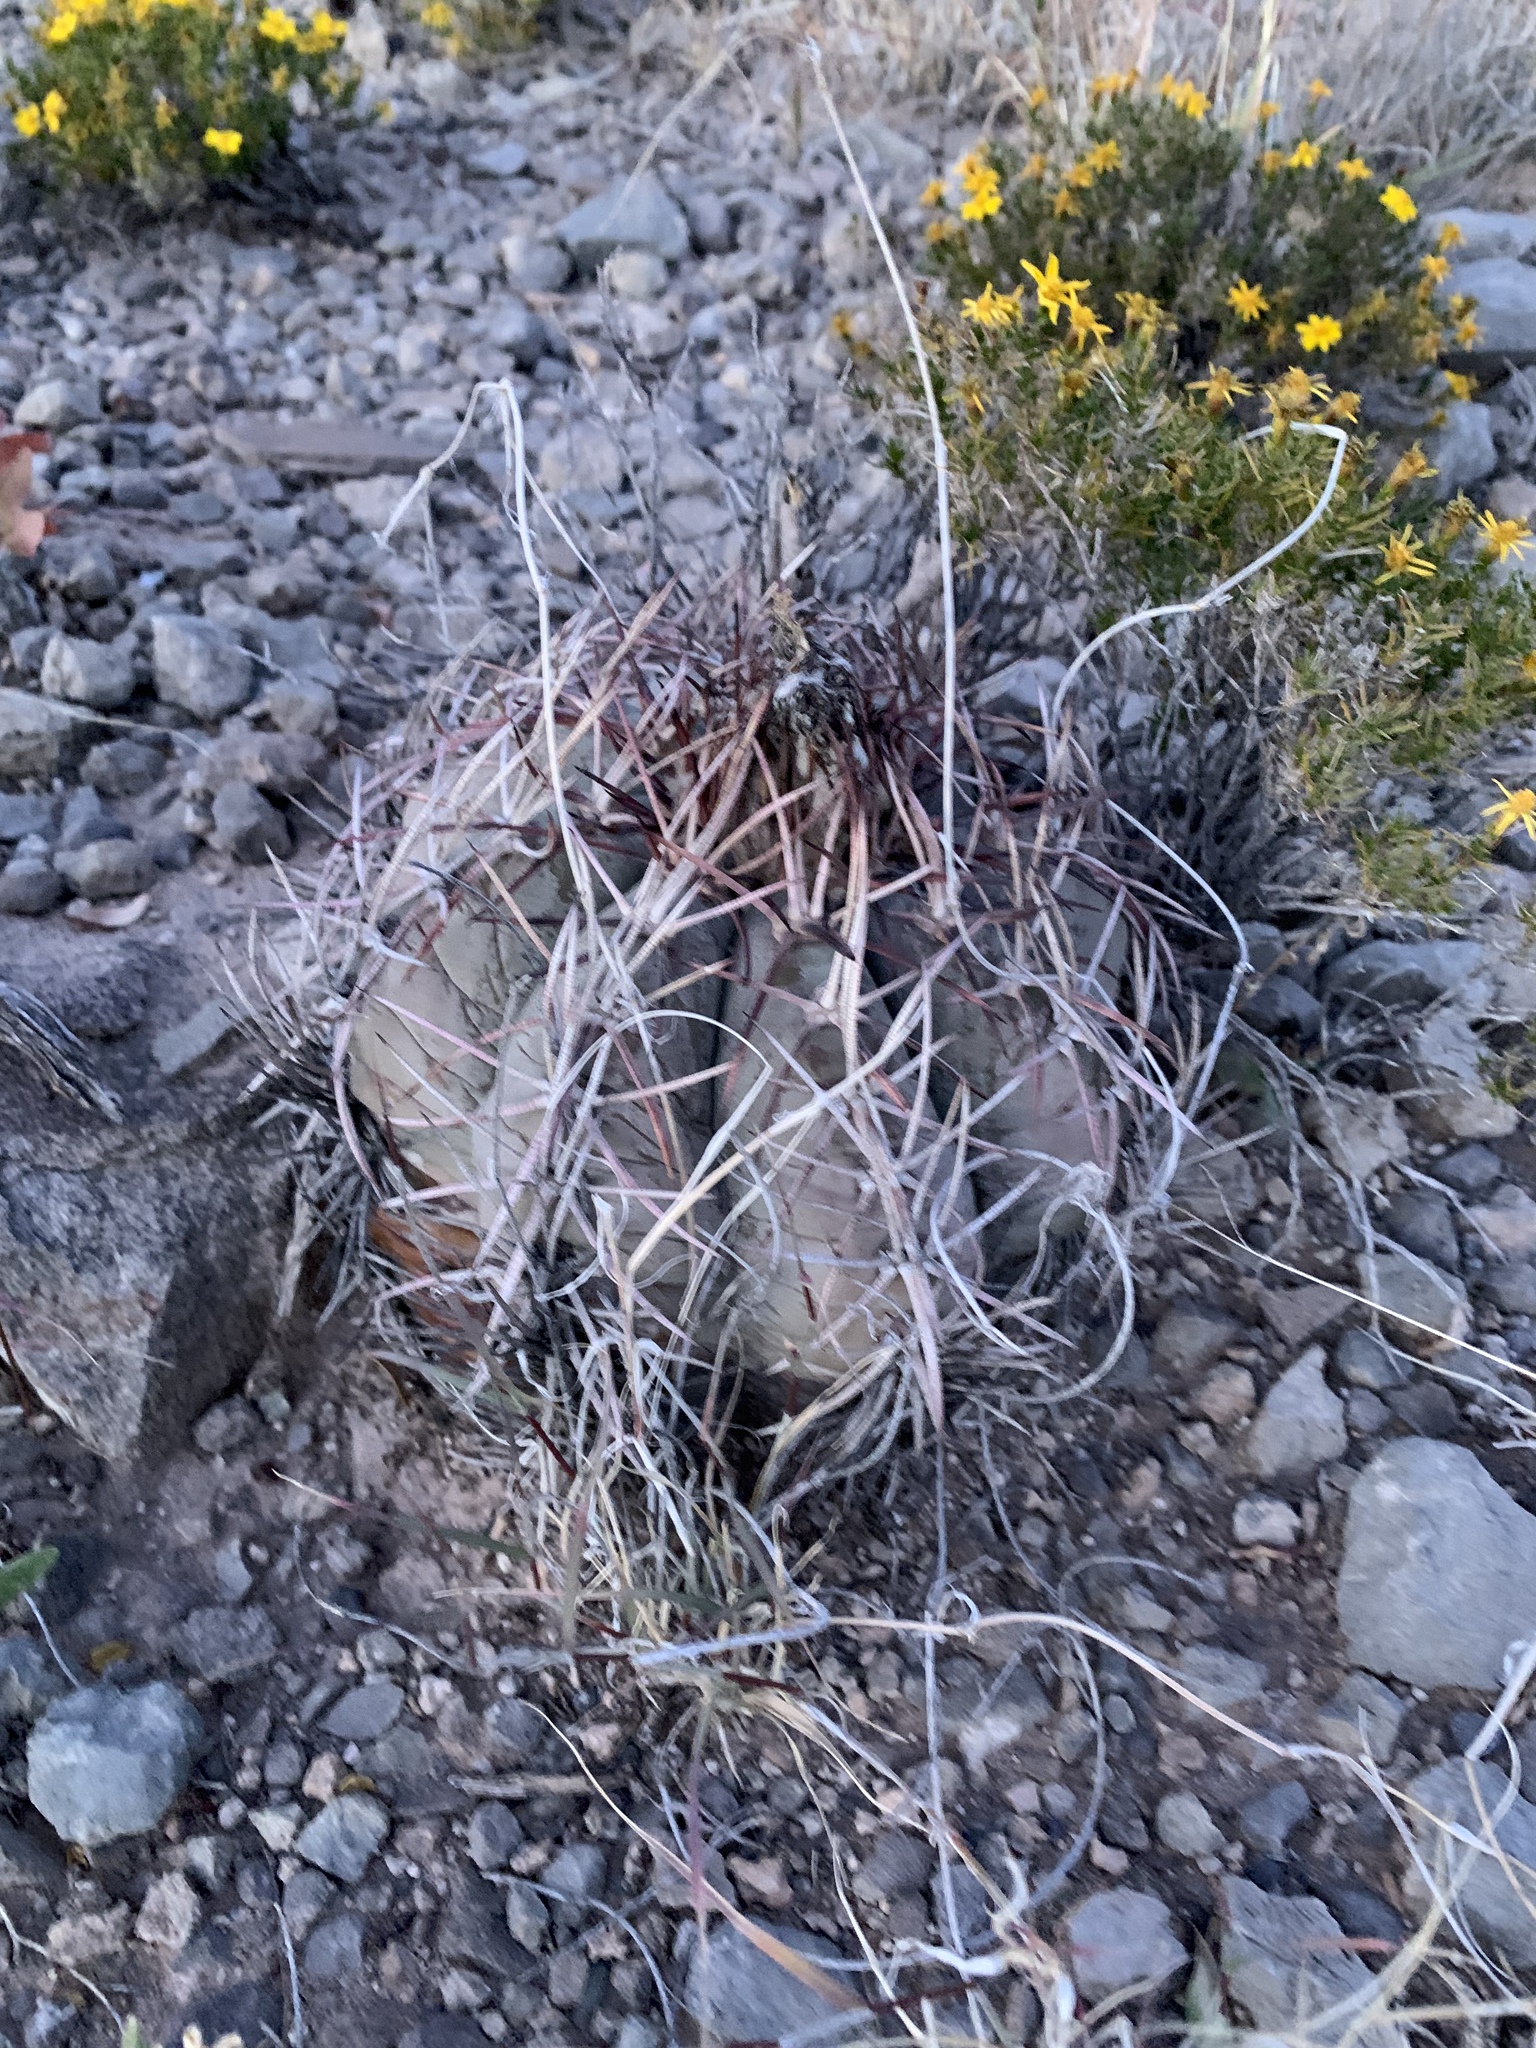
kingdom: Plantae
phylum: Tracheophyta
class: Magnoliopsida
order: Caryophyllales
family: Cactaceae
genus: Echinocactus
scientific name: Echinocactus horizonthalonius
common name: Devilshead
